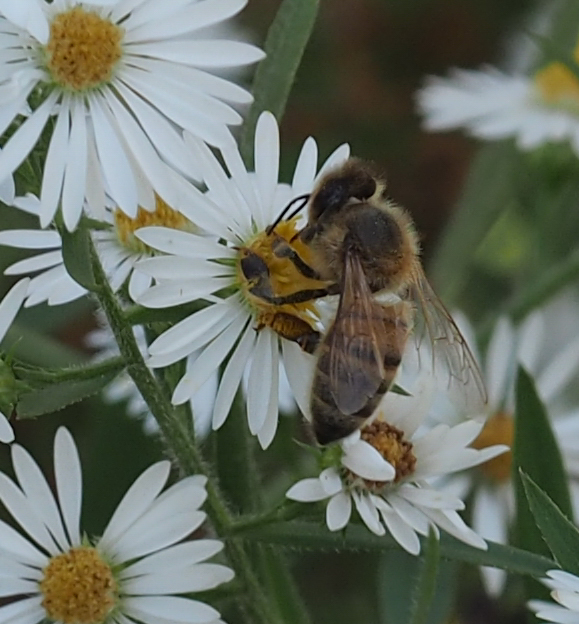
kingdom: Animalia
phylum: Arthropoda
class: Insecta
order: Hymenoptera
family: Apidae
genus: Apis
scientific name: Apis mellifera
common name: Honey bee
